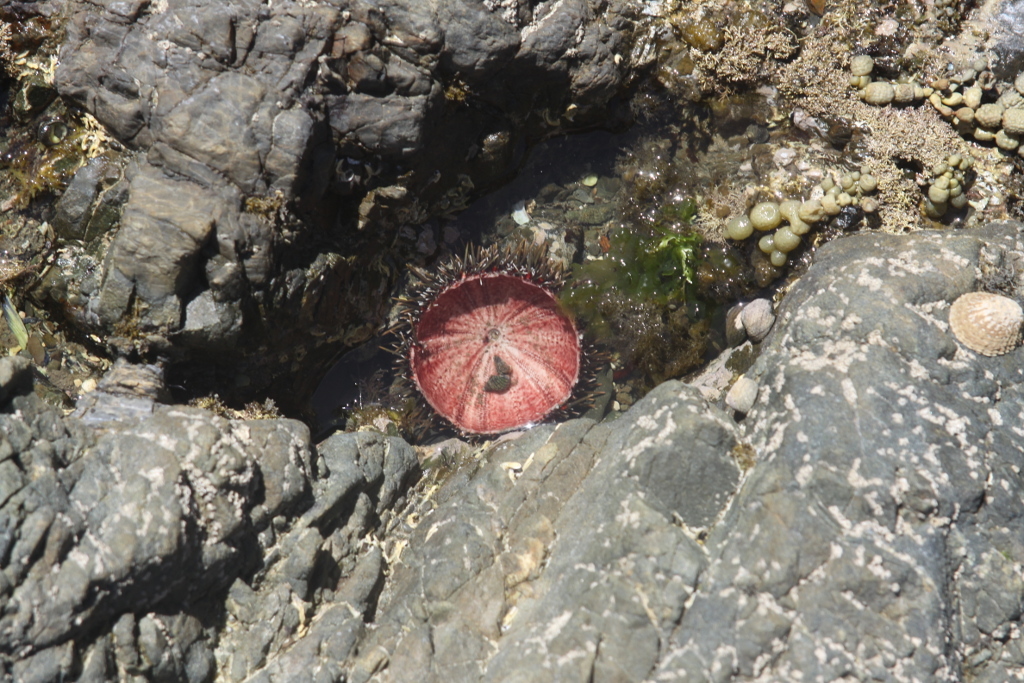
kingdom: Animalia
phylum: Echinodermata
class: Echinoidea
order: Camarodonta
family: Echinometridae
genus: Evechinus
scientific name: Evechinus chloroticus
